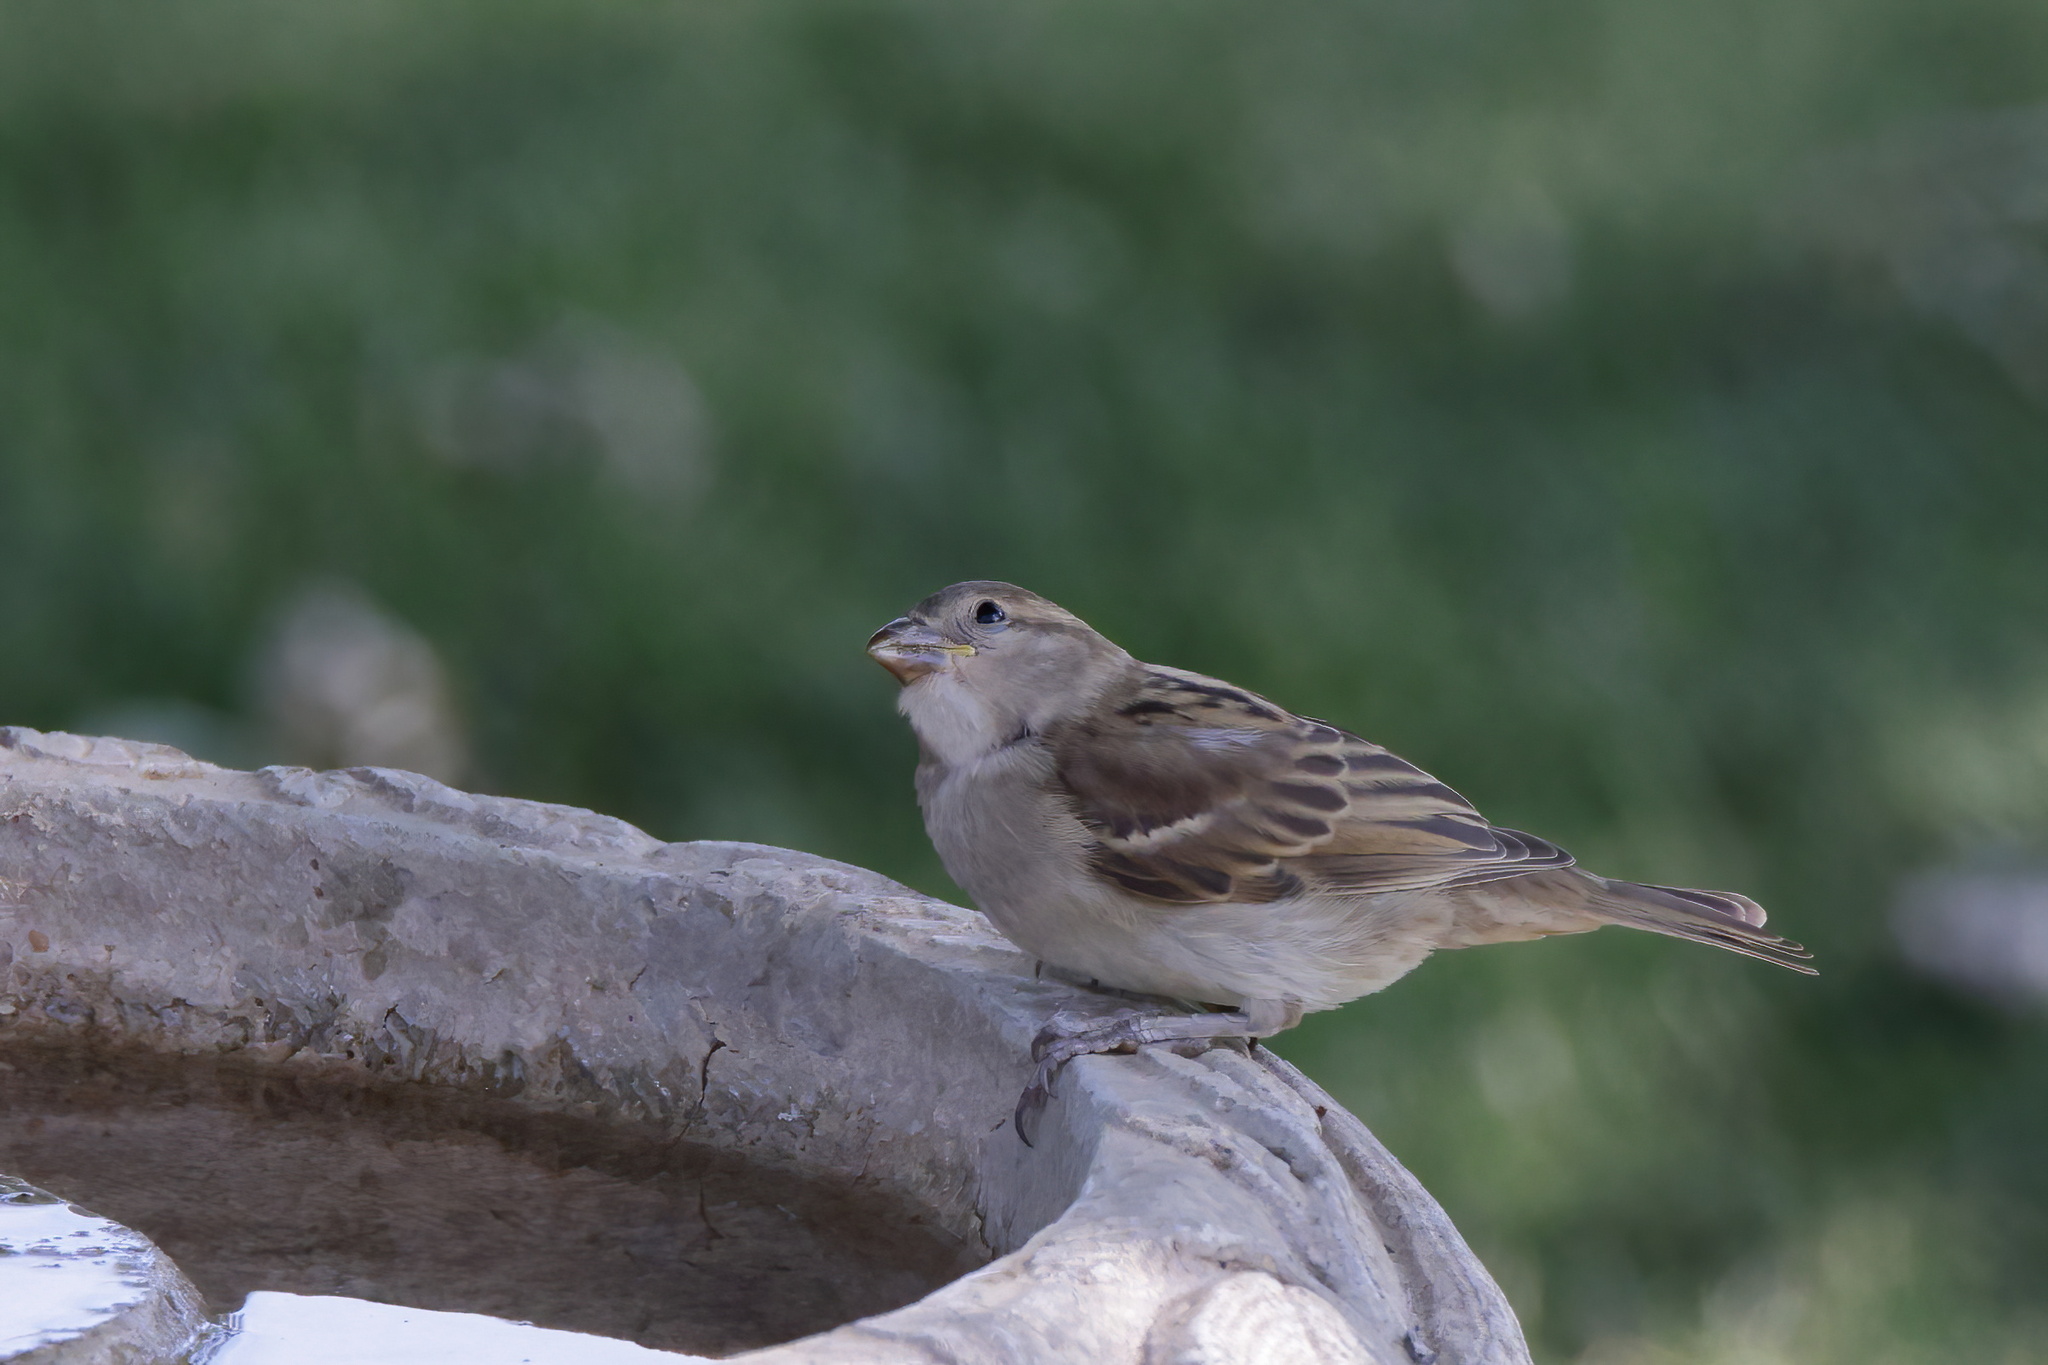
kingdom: Animalia
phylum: Chordata
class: Aves
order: Passeriformes
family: Passeridae
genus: Passer
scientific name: Passer domesticus
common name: House sparrow
